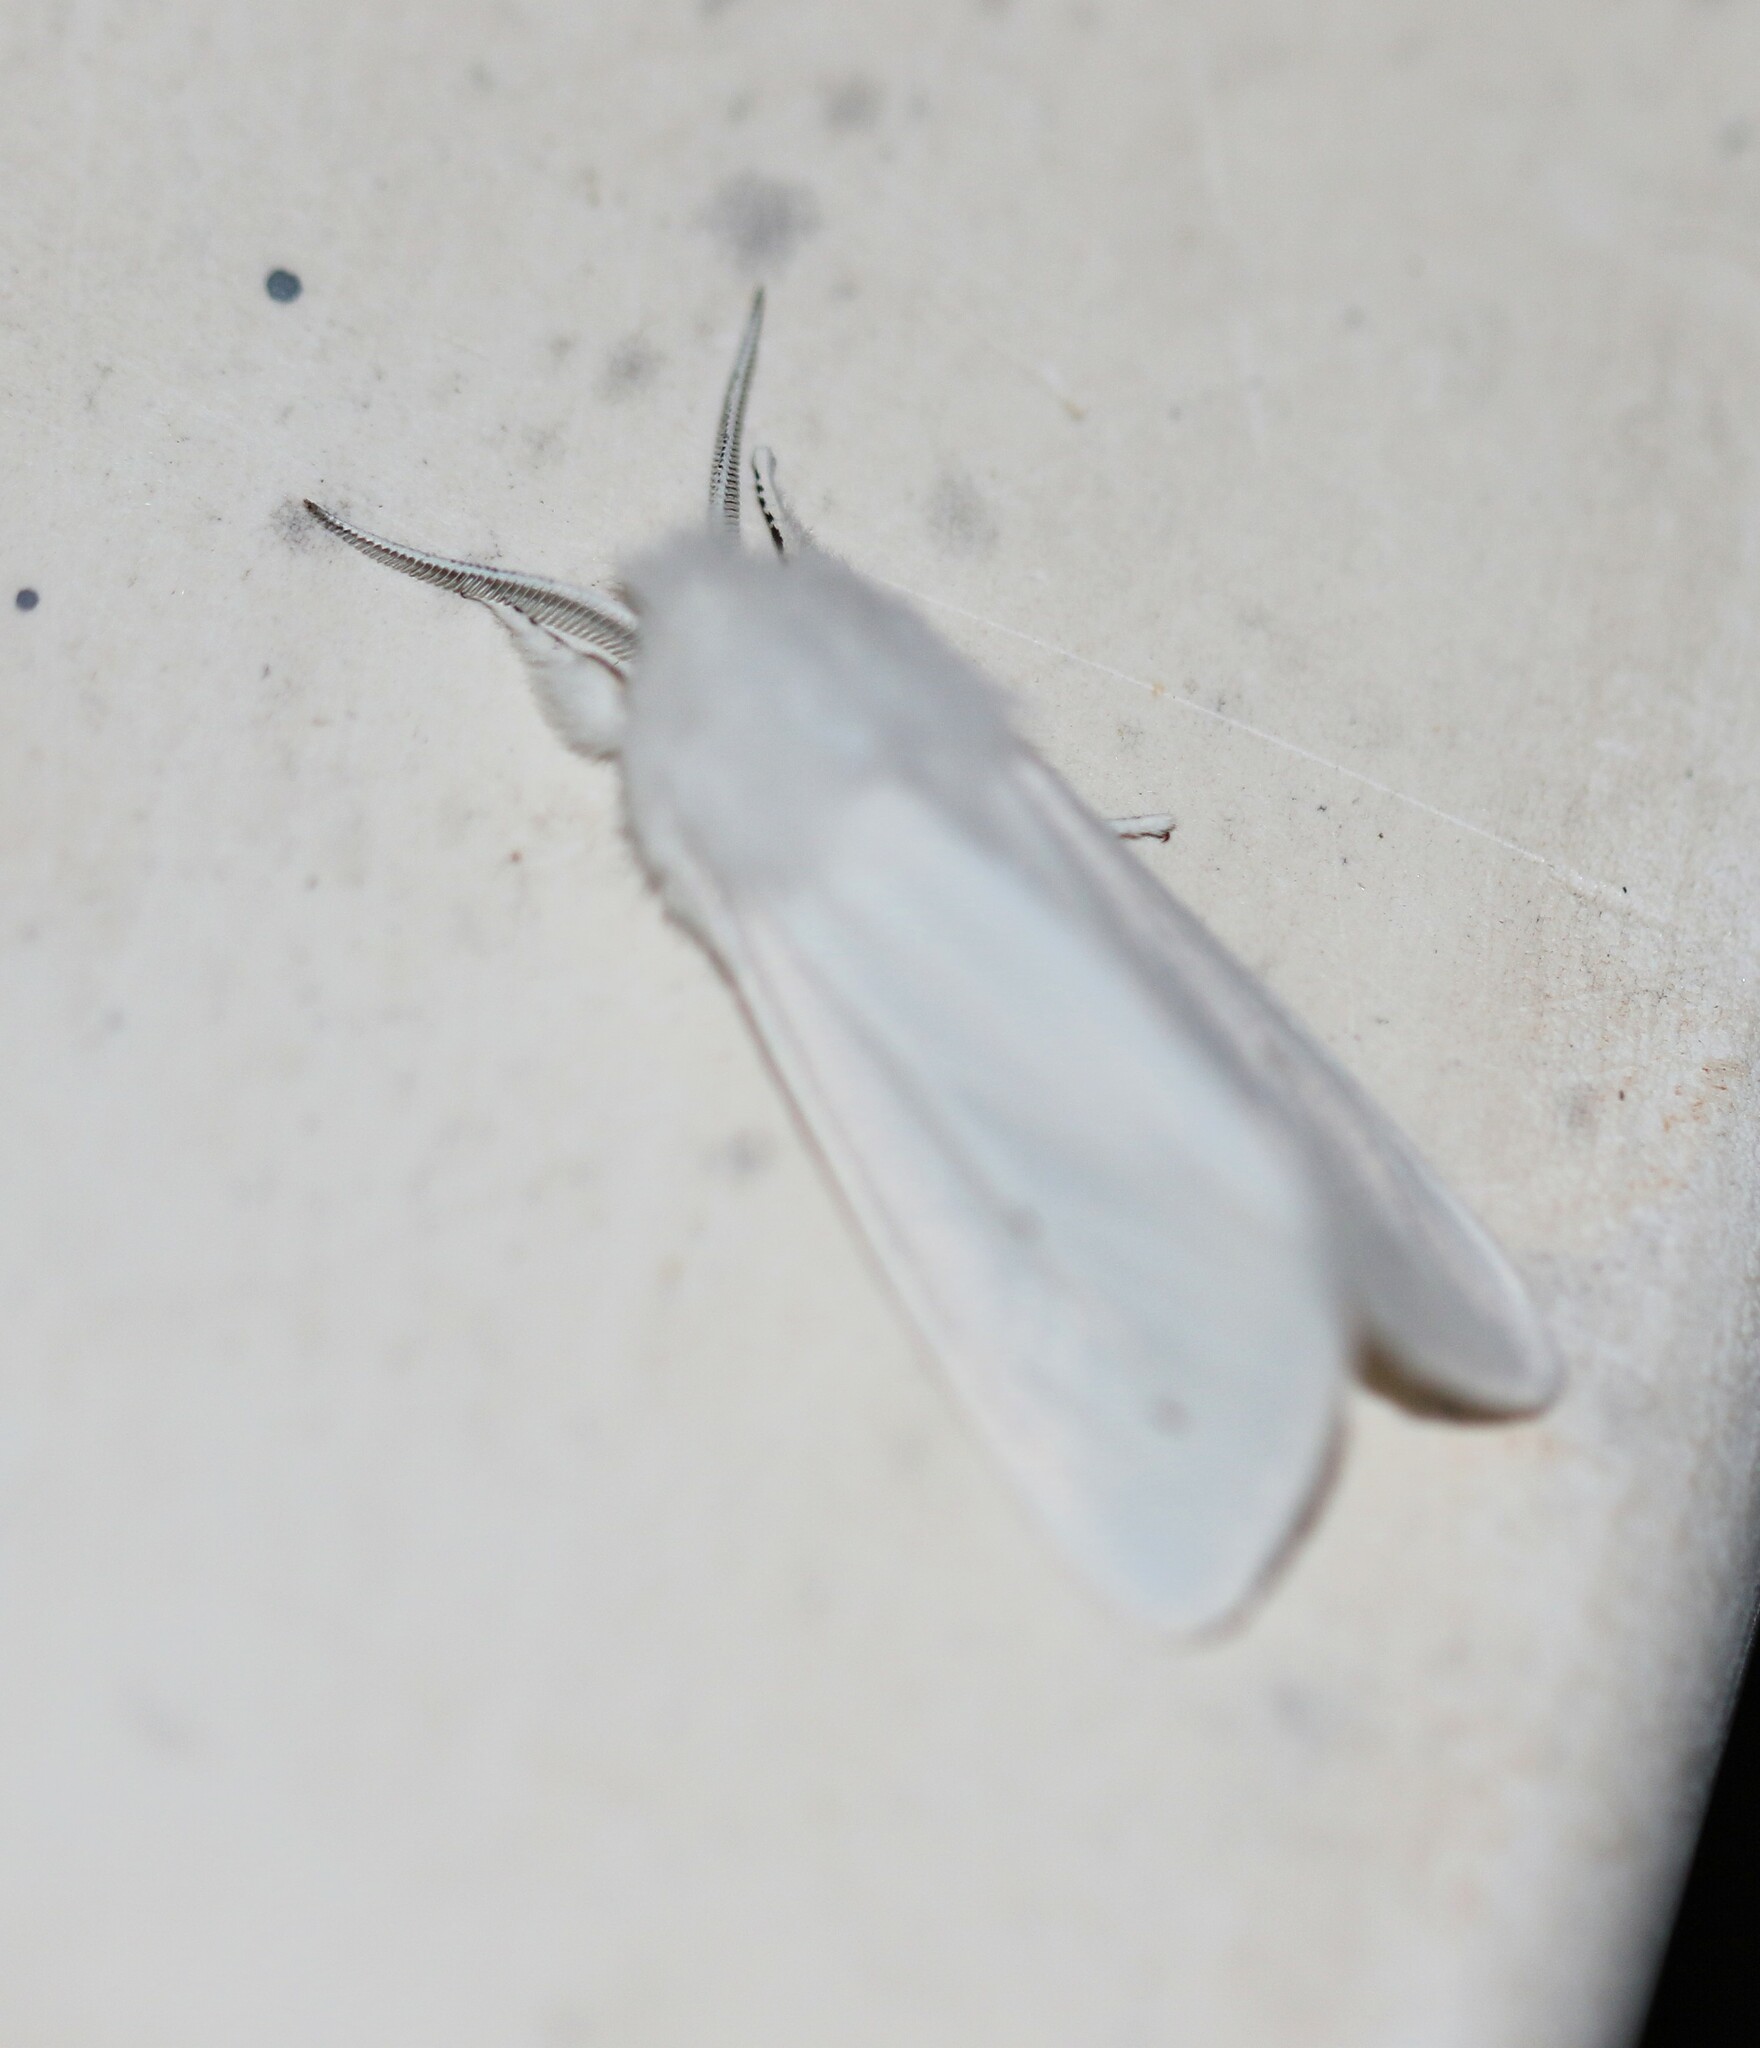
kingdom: Animalia
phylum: Arthropoda
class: Insecta
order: Lepidoptera
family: Erebidae
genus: Spilosoma
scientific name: Spilosoma virginica
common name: Virginia tiger moth
